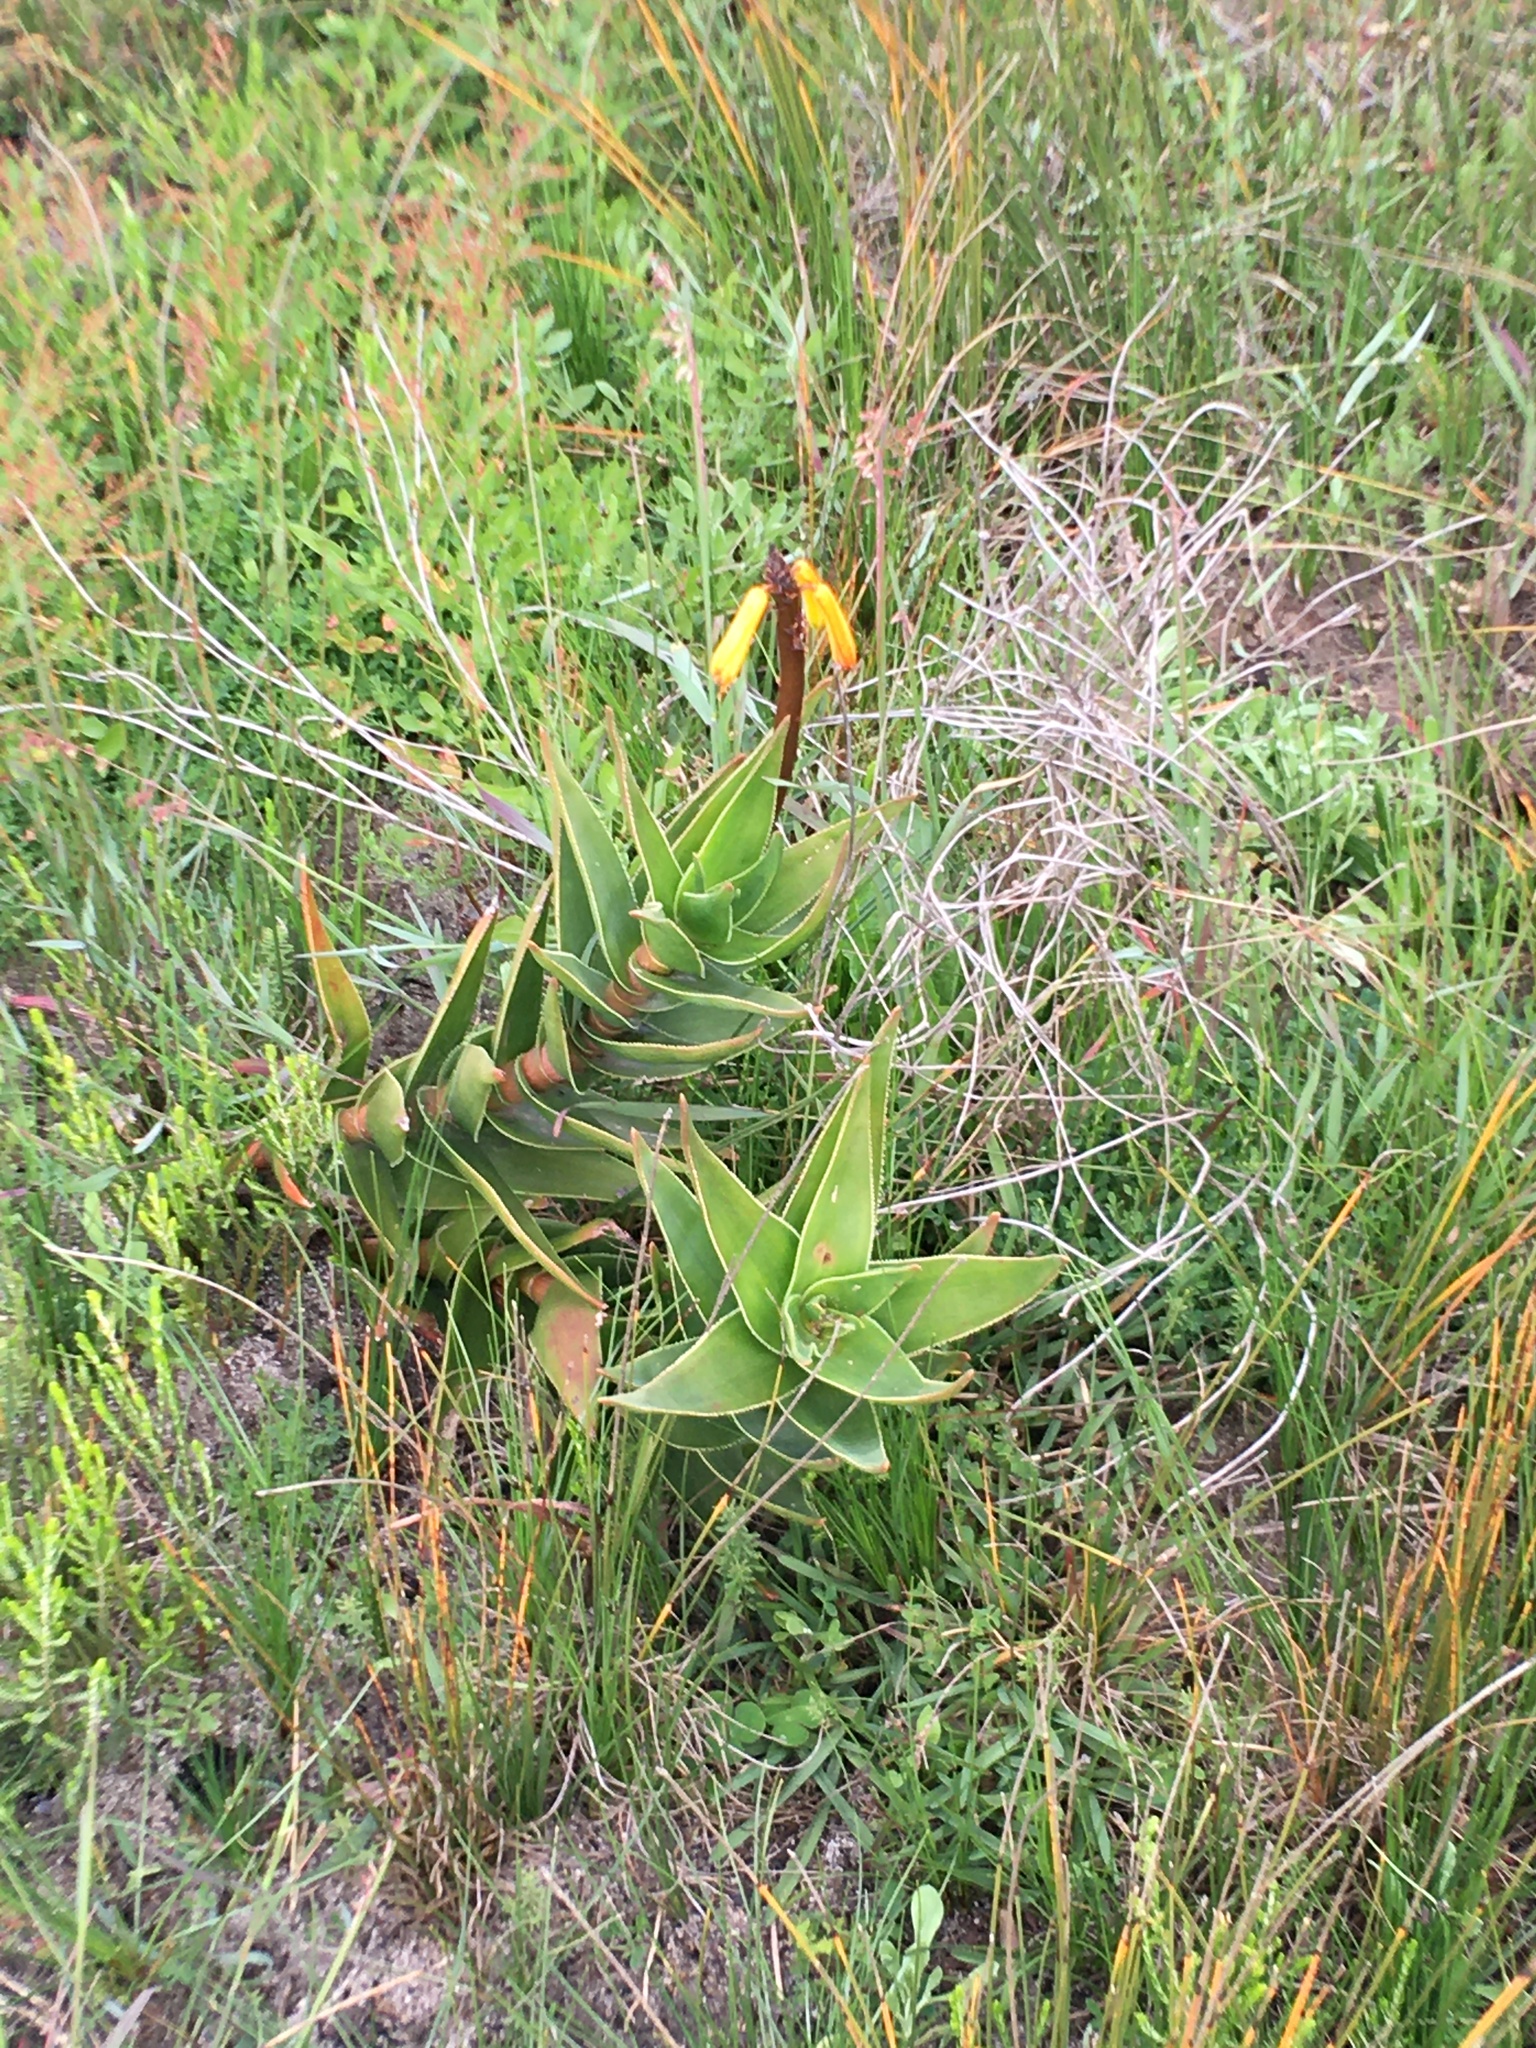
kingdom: Plantae
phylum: Tracheophyta
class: Liliopsida
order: Asparagales
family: Asphodelaceae
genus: Aloiampelos
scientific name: Aloiampelos commixta
